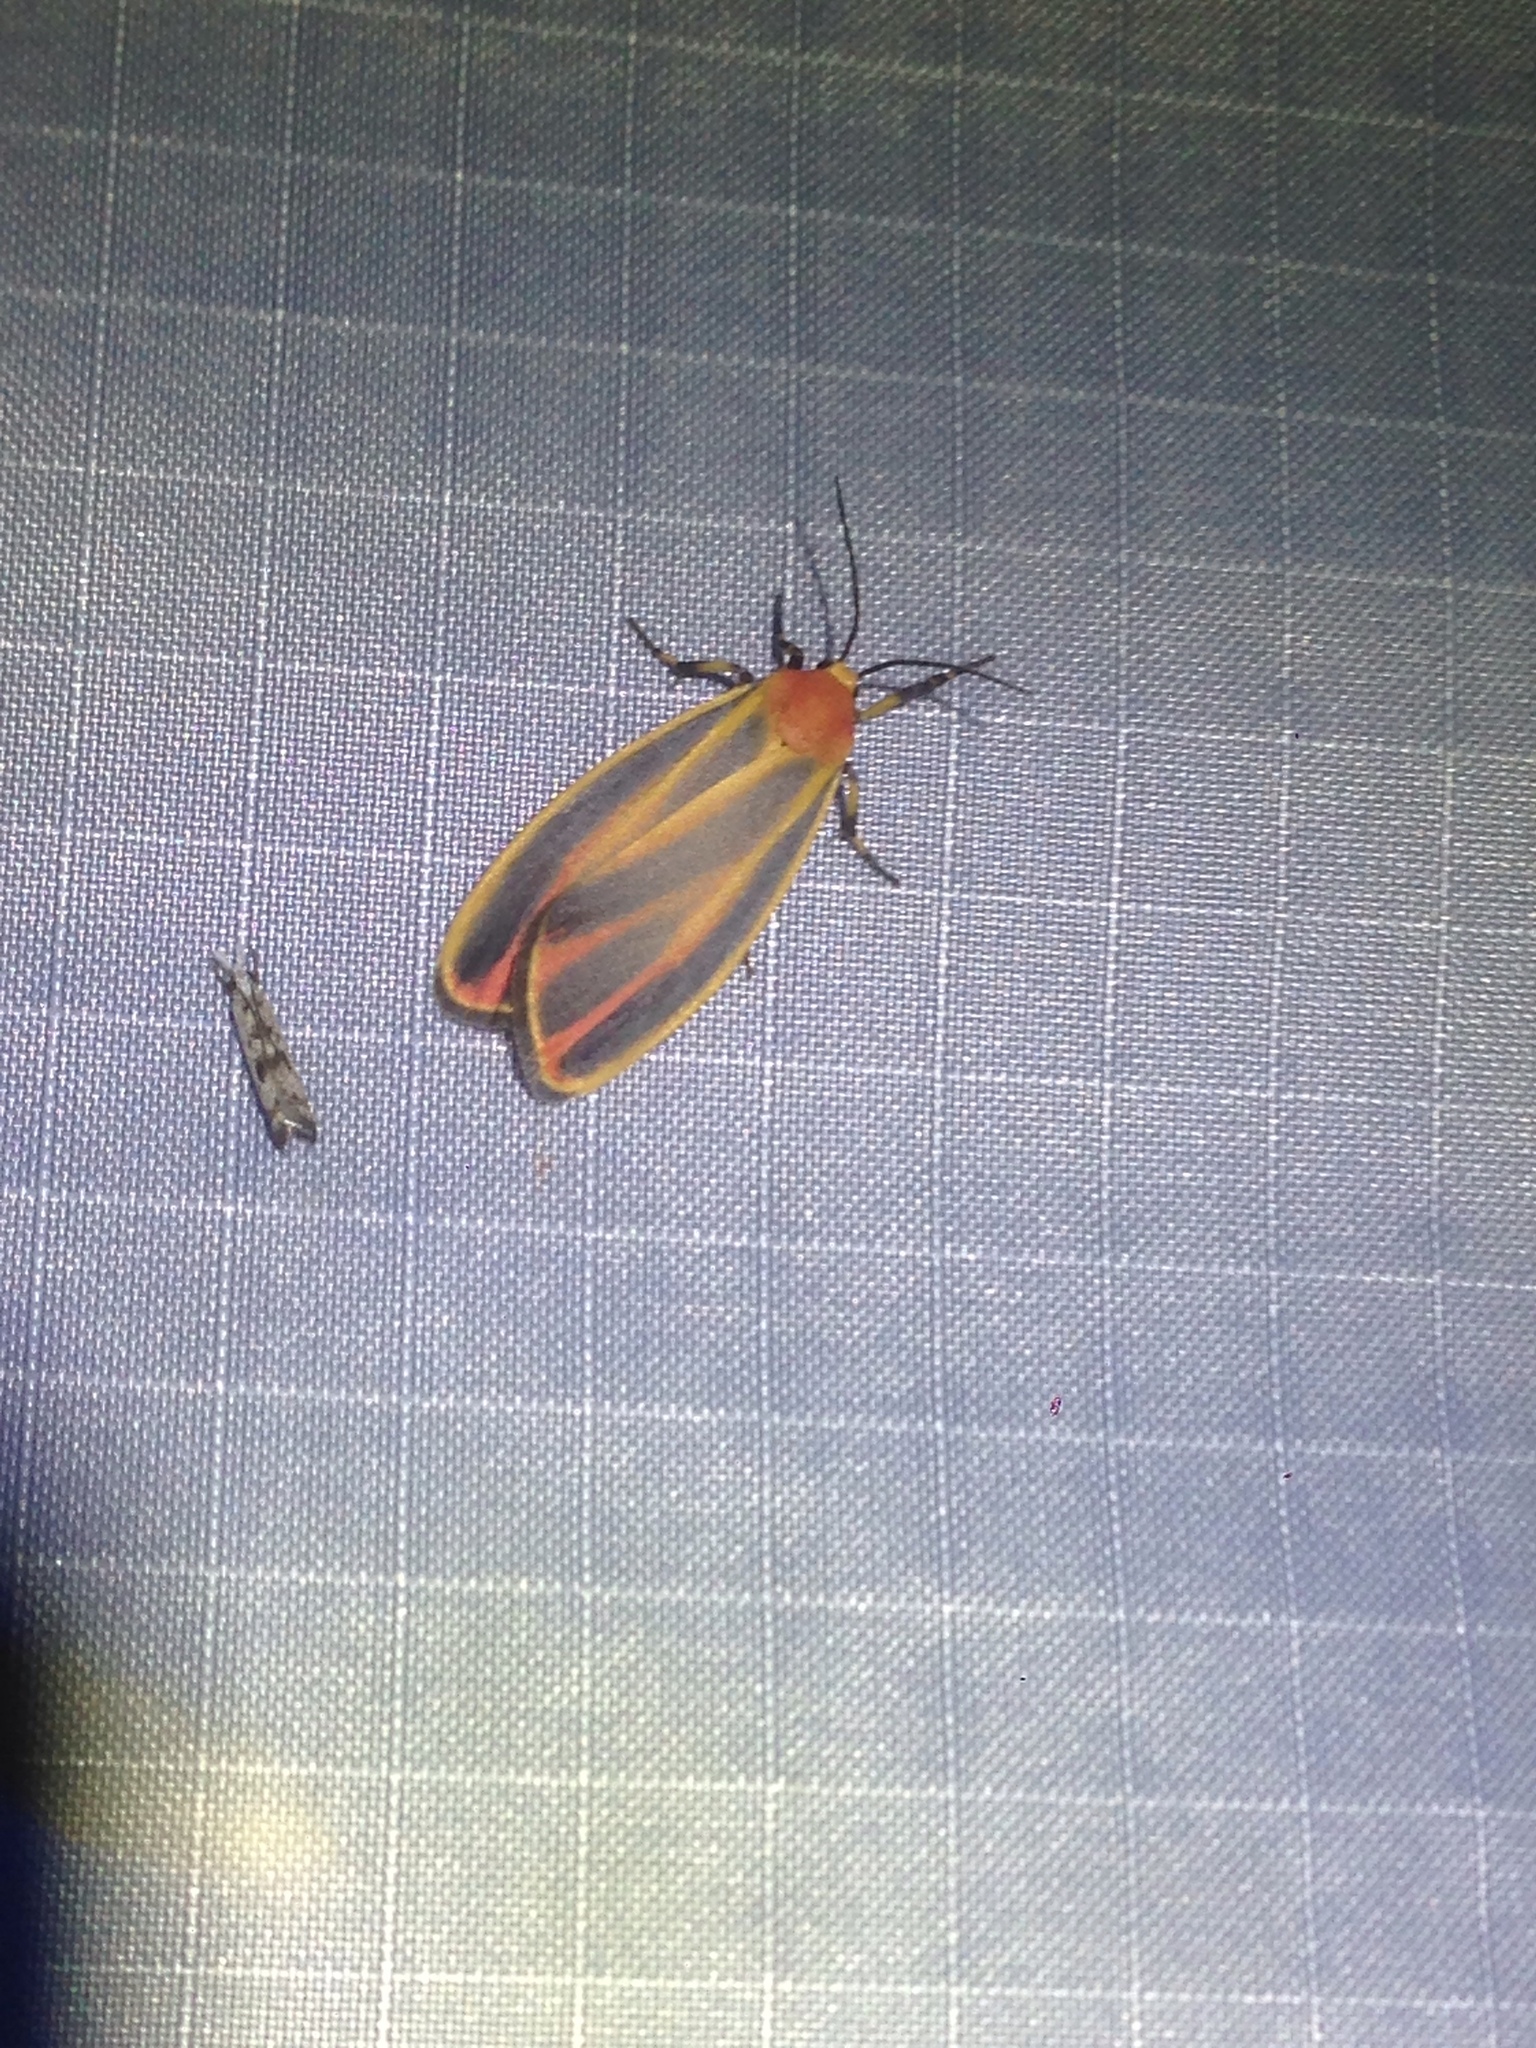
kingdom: Animalia
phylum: Arthropoda
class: Insecta
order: Lepidoptera
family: Erebidae
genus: Hypoprepia
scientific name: Hypoprepia fucosa
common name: Painted lichen moth
